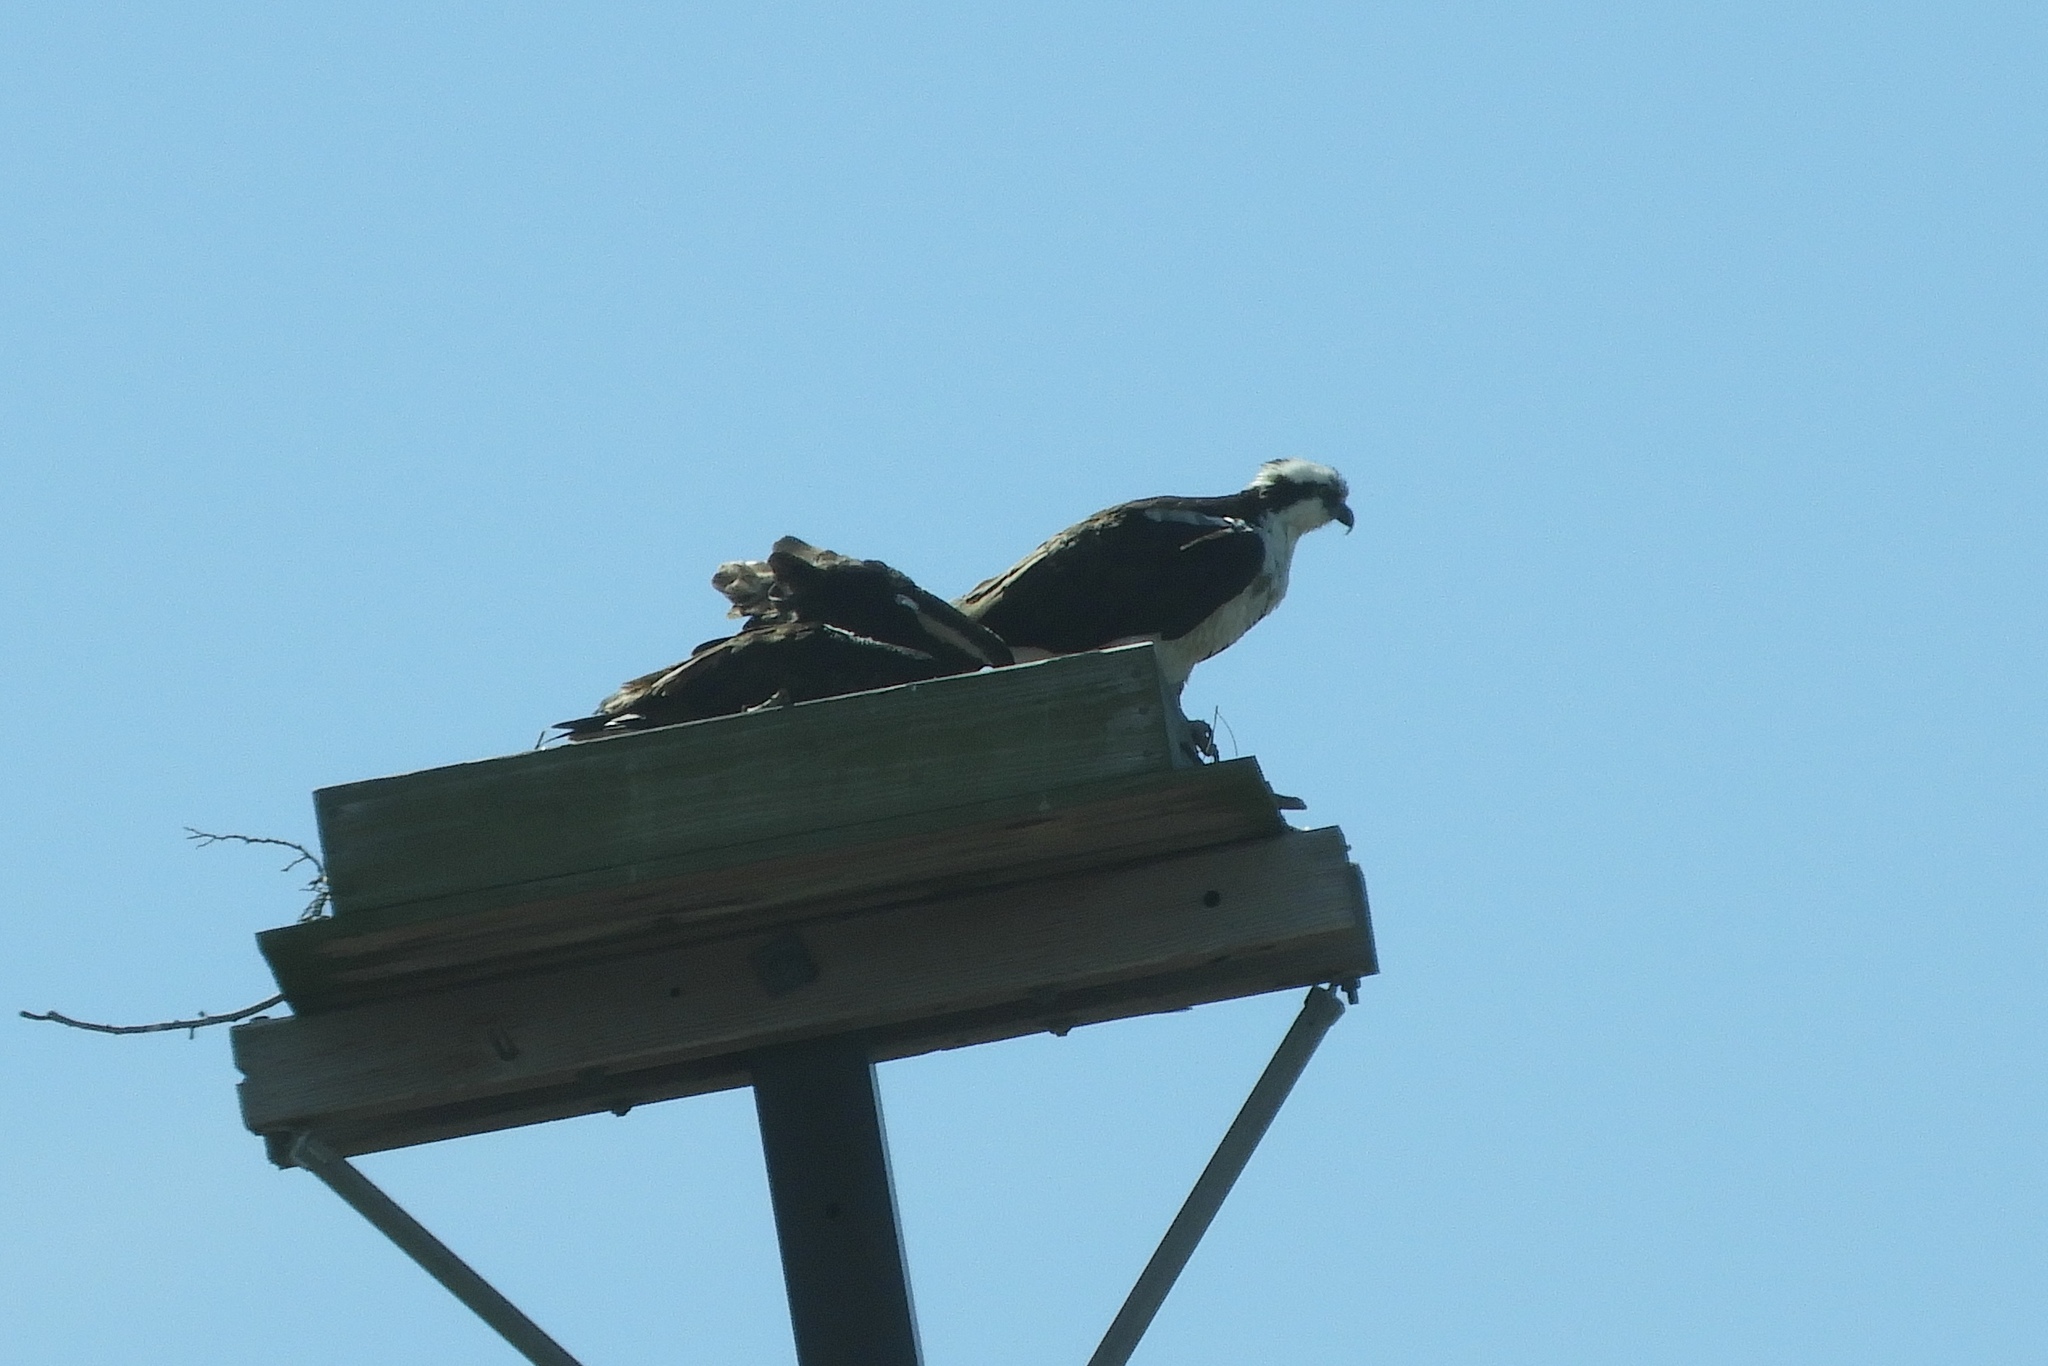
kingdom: Animalia
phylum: Chordata
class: Aves
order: Accipitriformes
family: Pandionidae
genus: Pandion
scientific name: Pandion haliaetus
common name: Osprey
